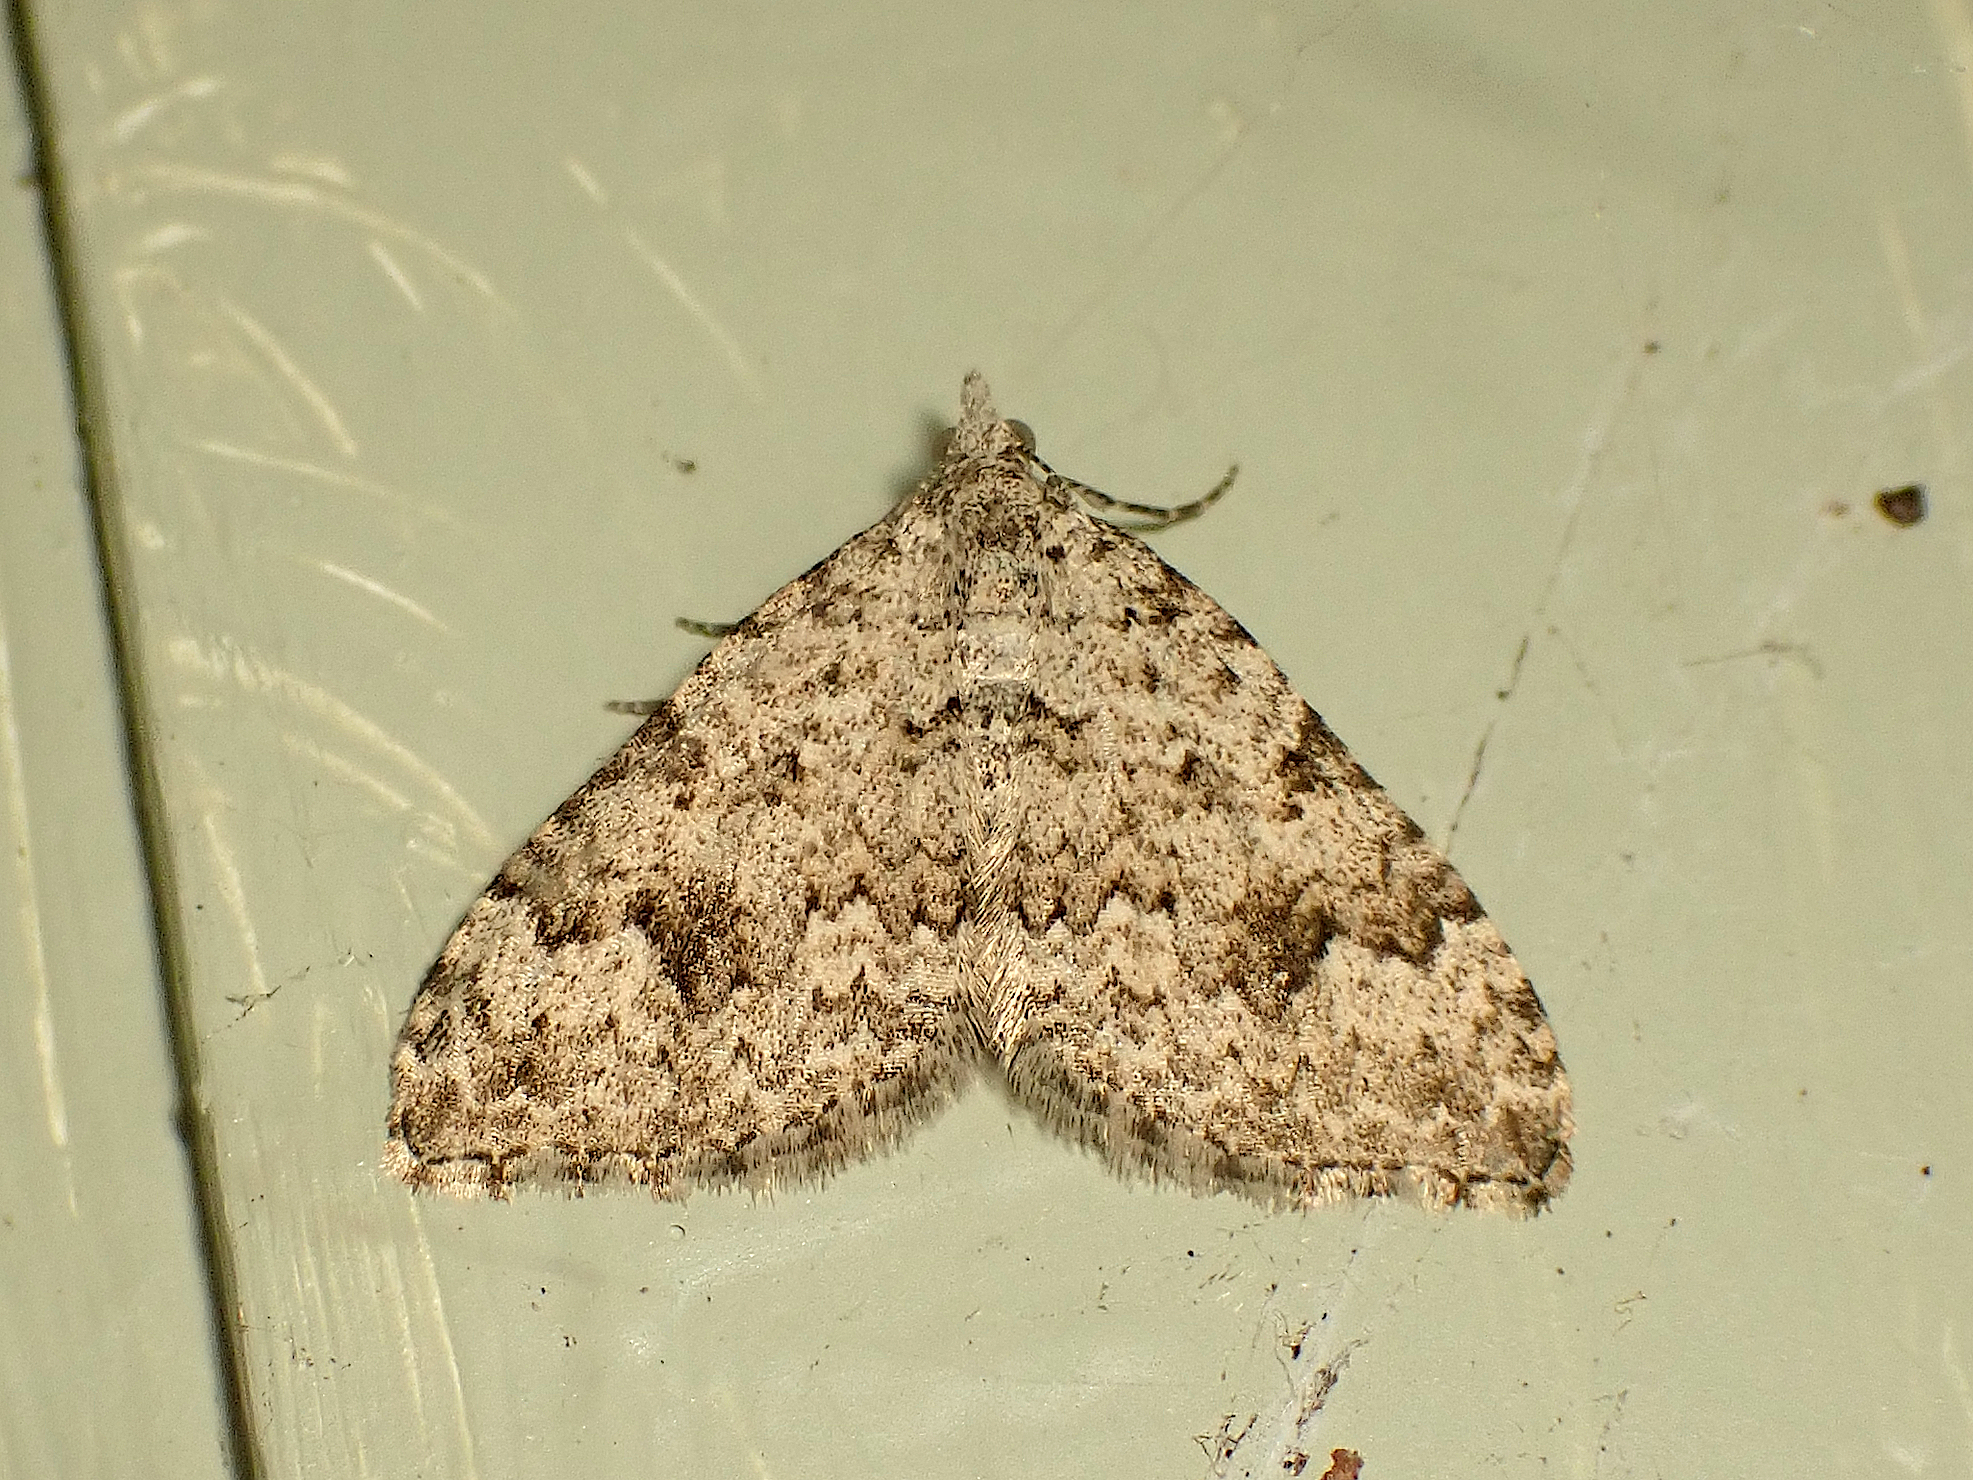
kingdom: Animalia
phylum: Arthropoda
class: Insecta
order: Lepidoptera
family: Geometridae
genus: Helastia
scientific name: Helastia cinerearia
